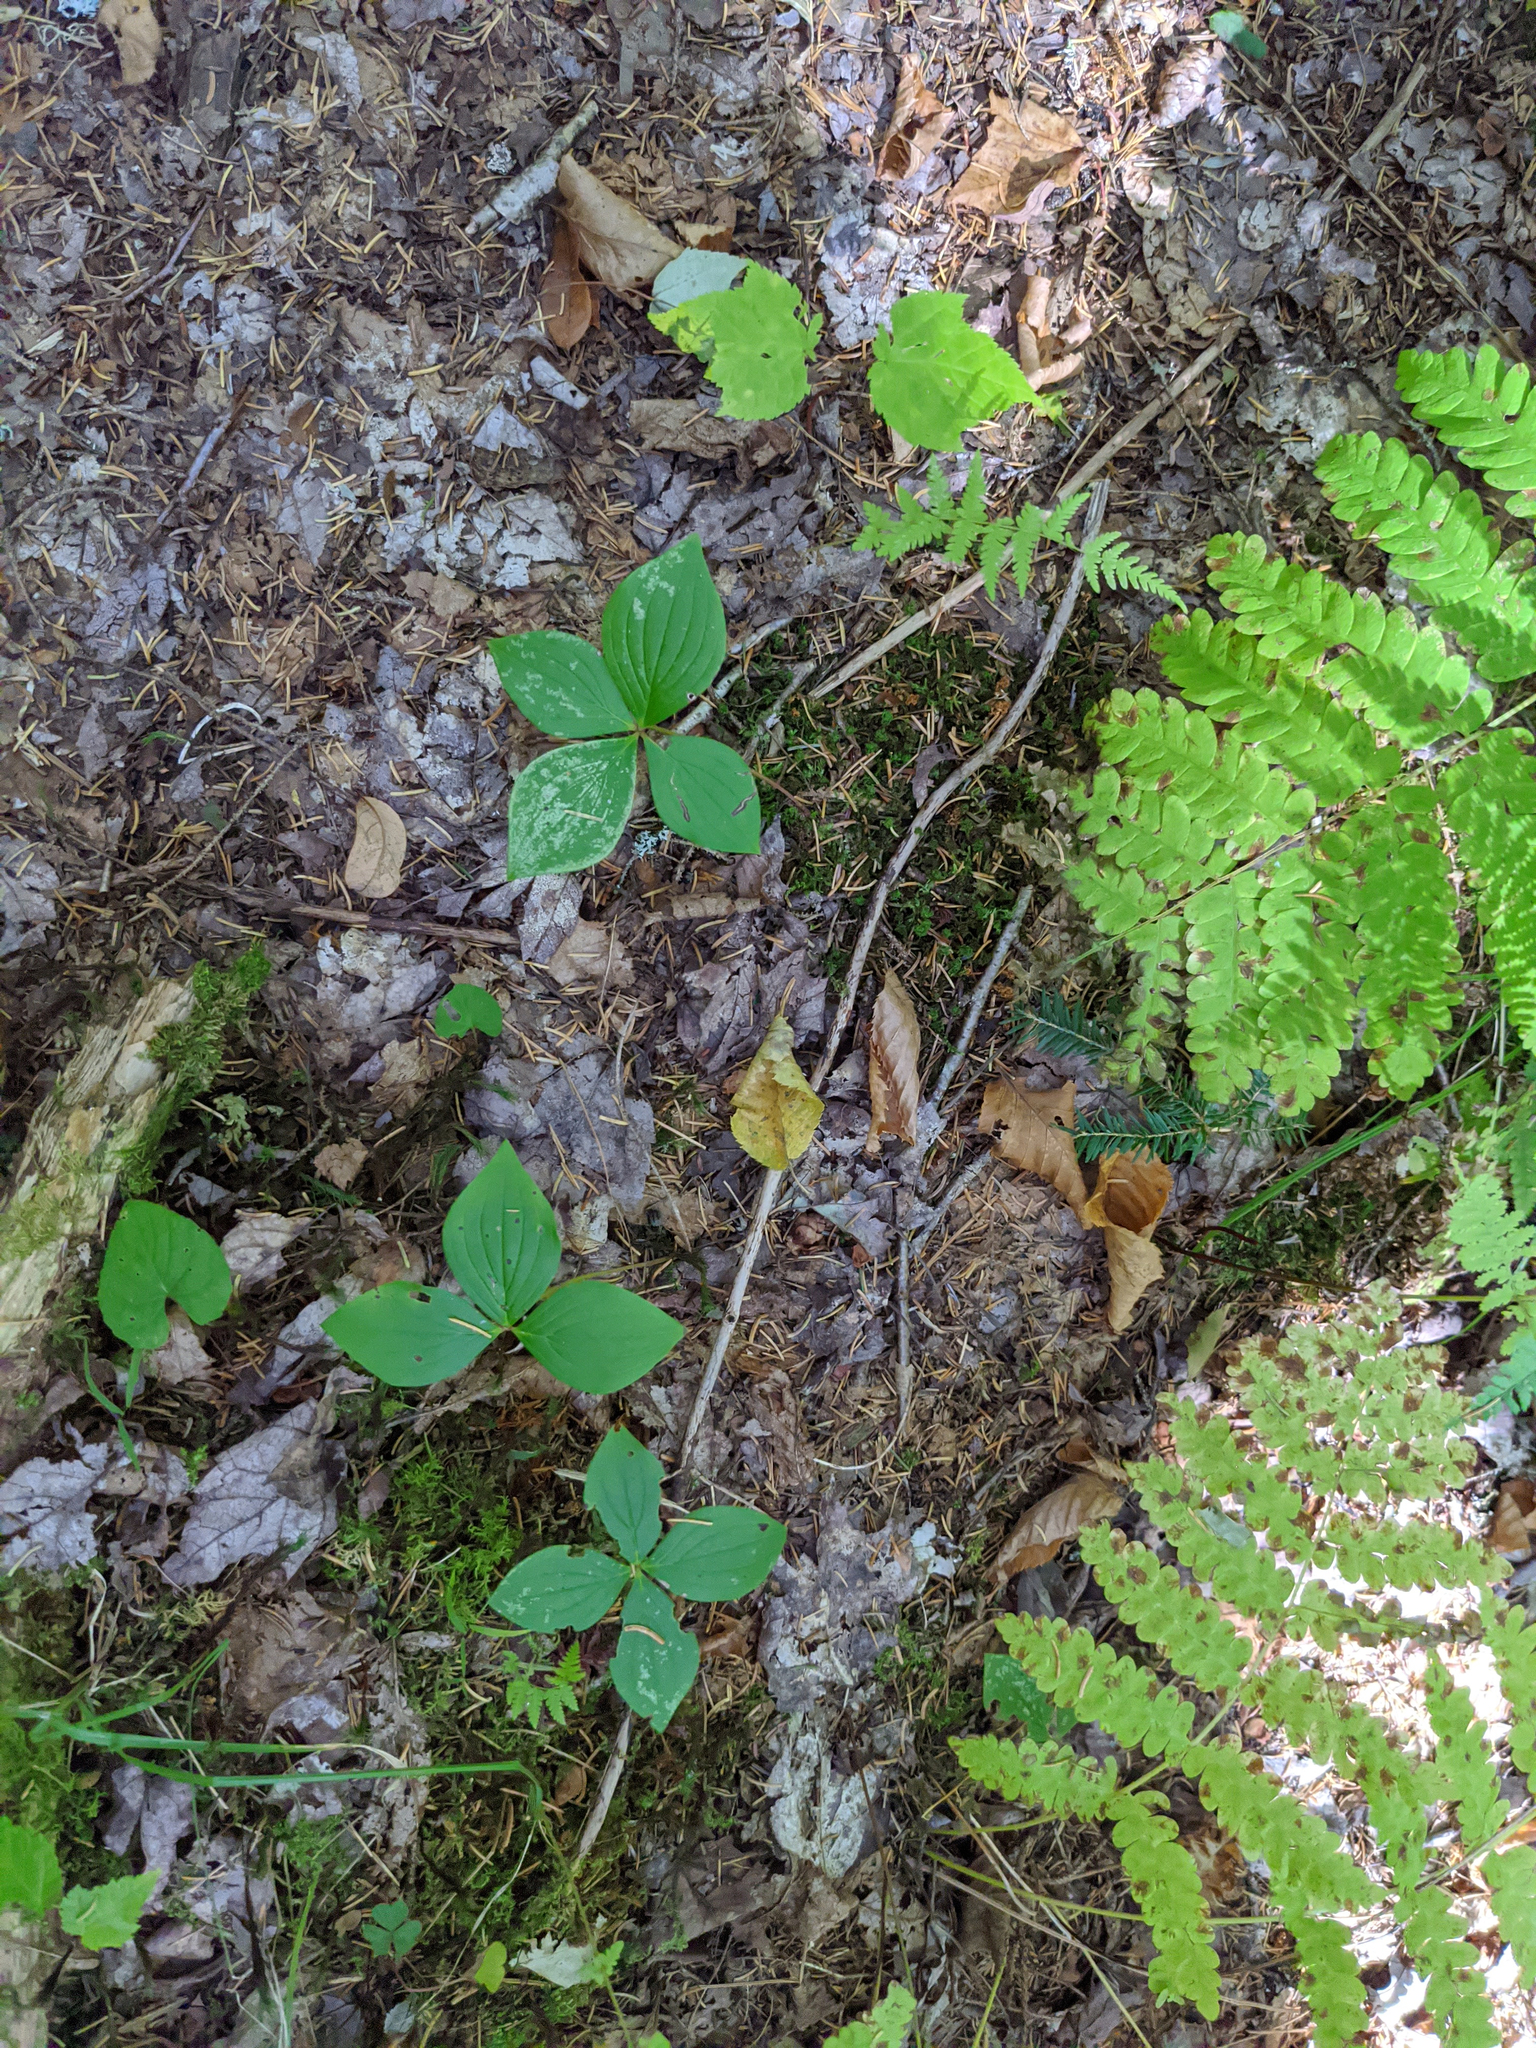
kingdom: Plantae
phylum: Tracheophyta
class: Magnoliopsida
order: Cornales
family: Cornaceae
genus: Cornus
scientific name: Cornus canadensis
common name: Creeping dogwood
